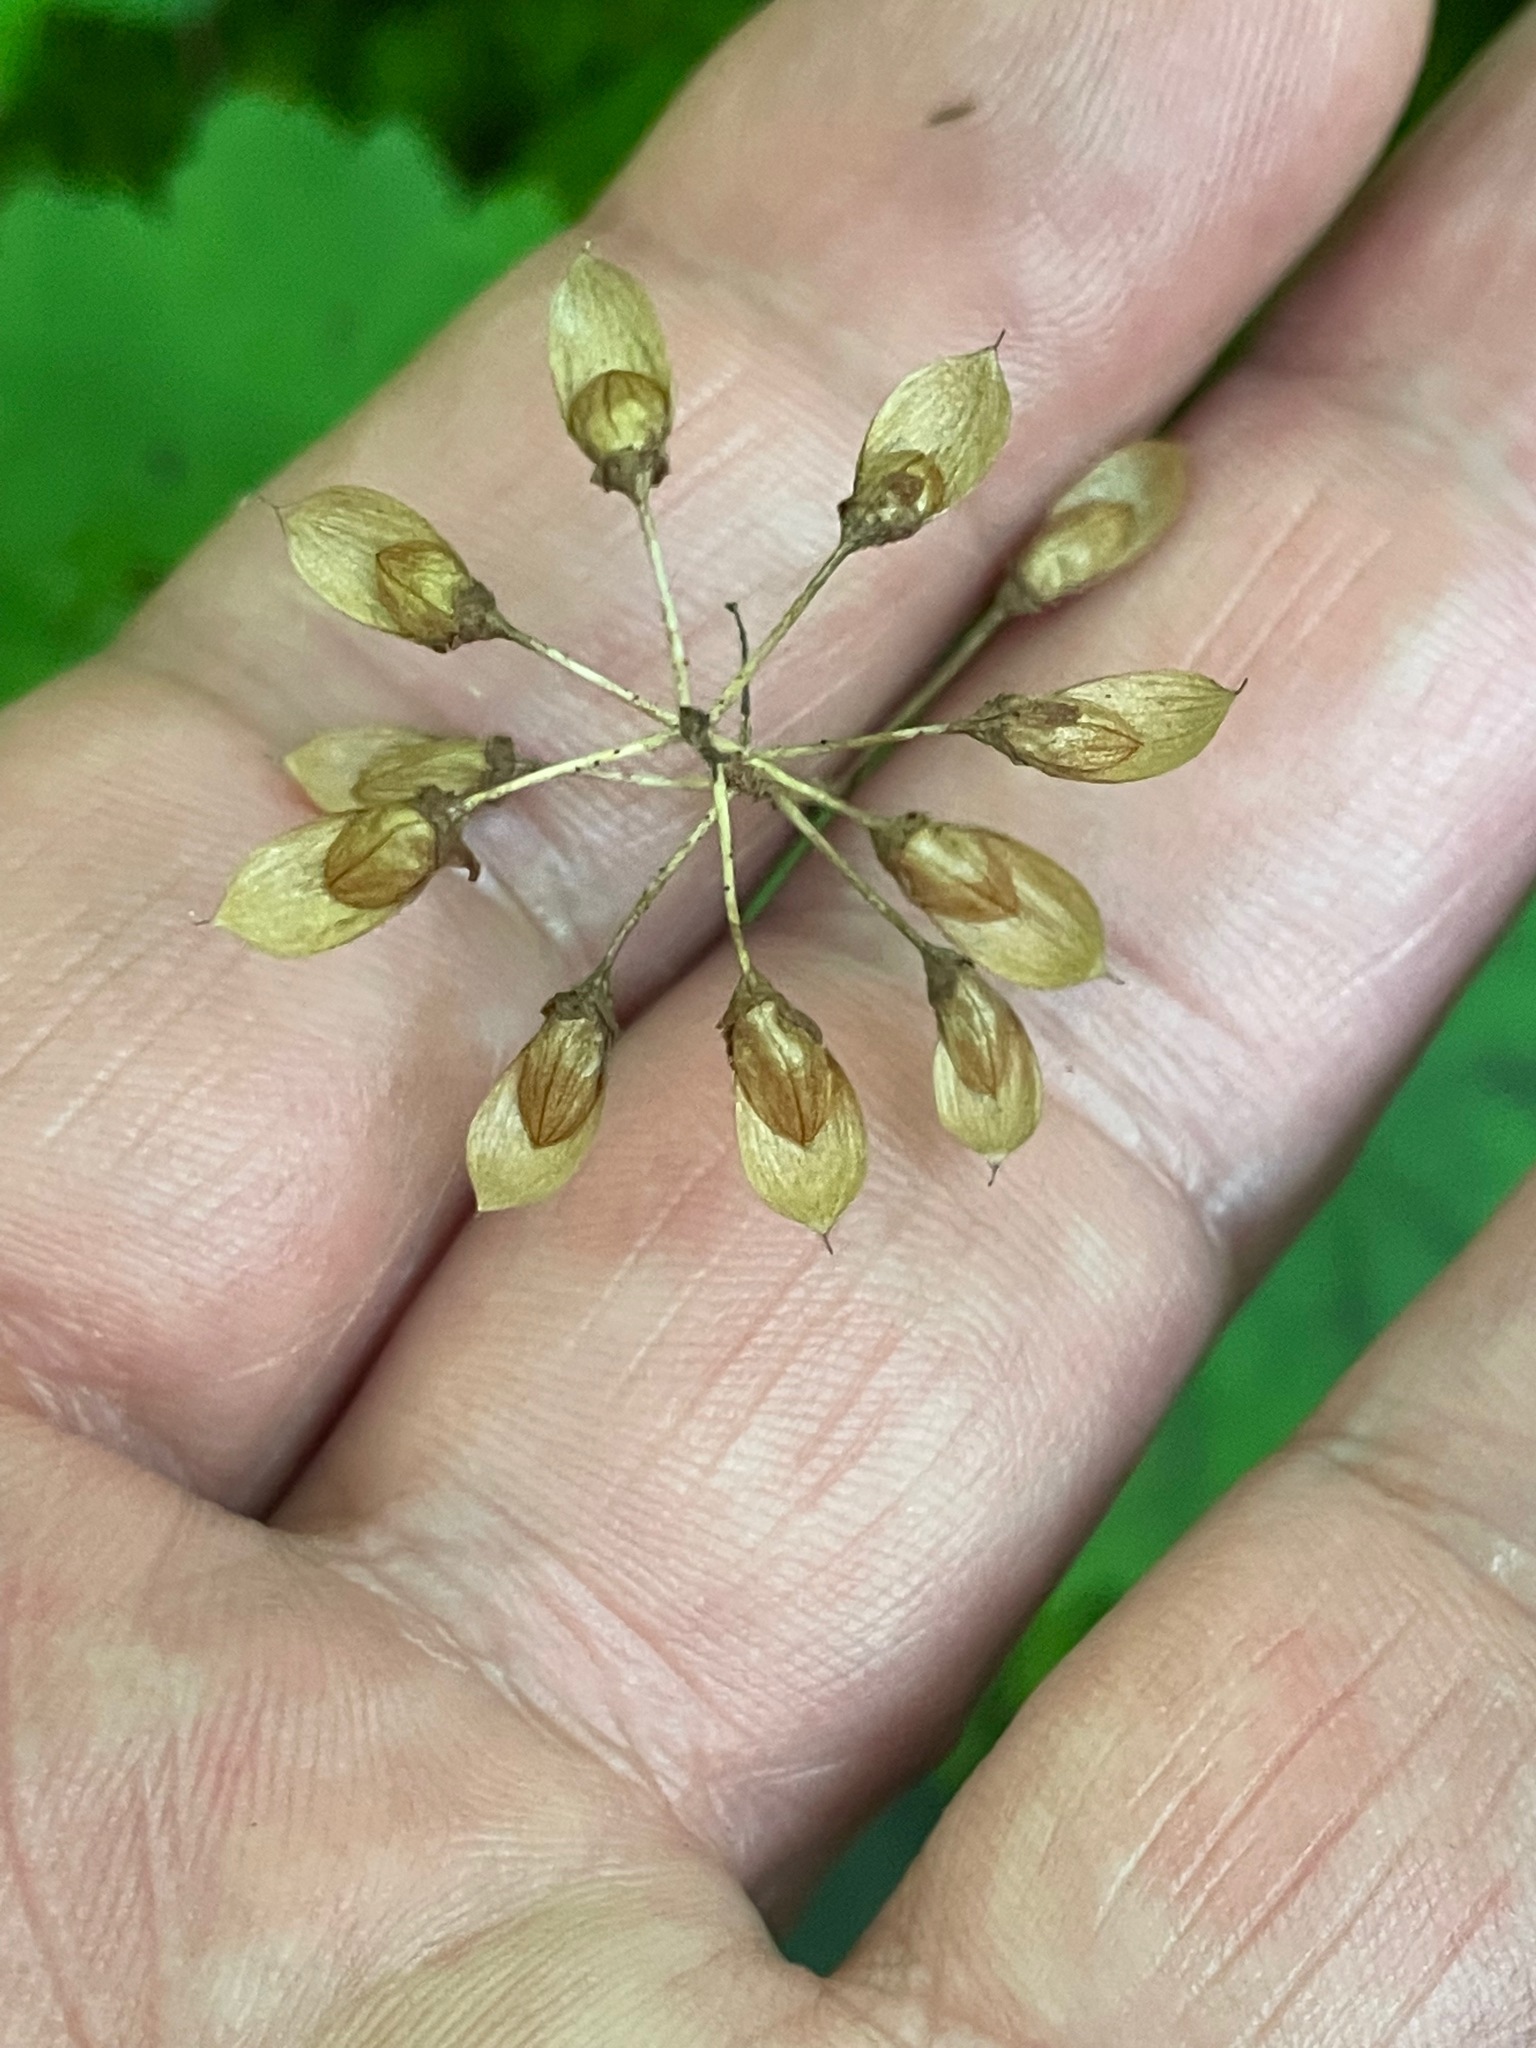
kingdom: Plantae
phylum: Tracheophyta
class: Magnoliopsida
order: Saxifragales
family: Saxifragaceae
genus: Tiarella
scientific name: Tiarella stolonifera
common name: Stoloniferous foamflower
